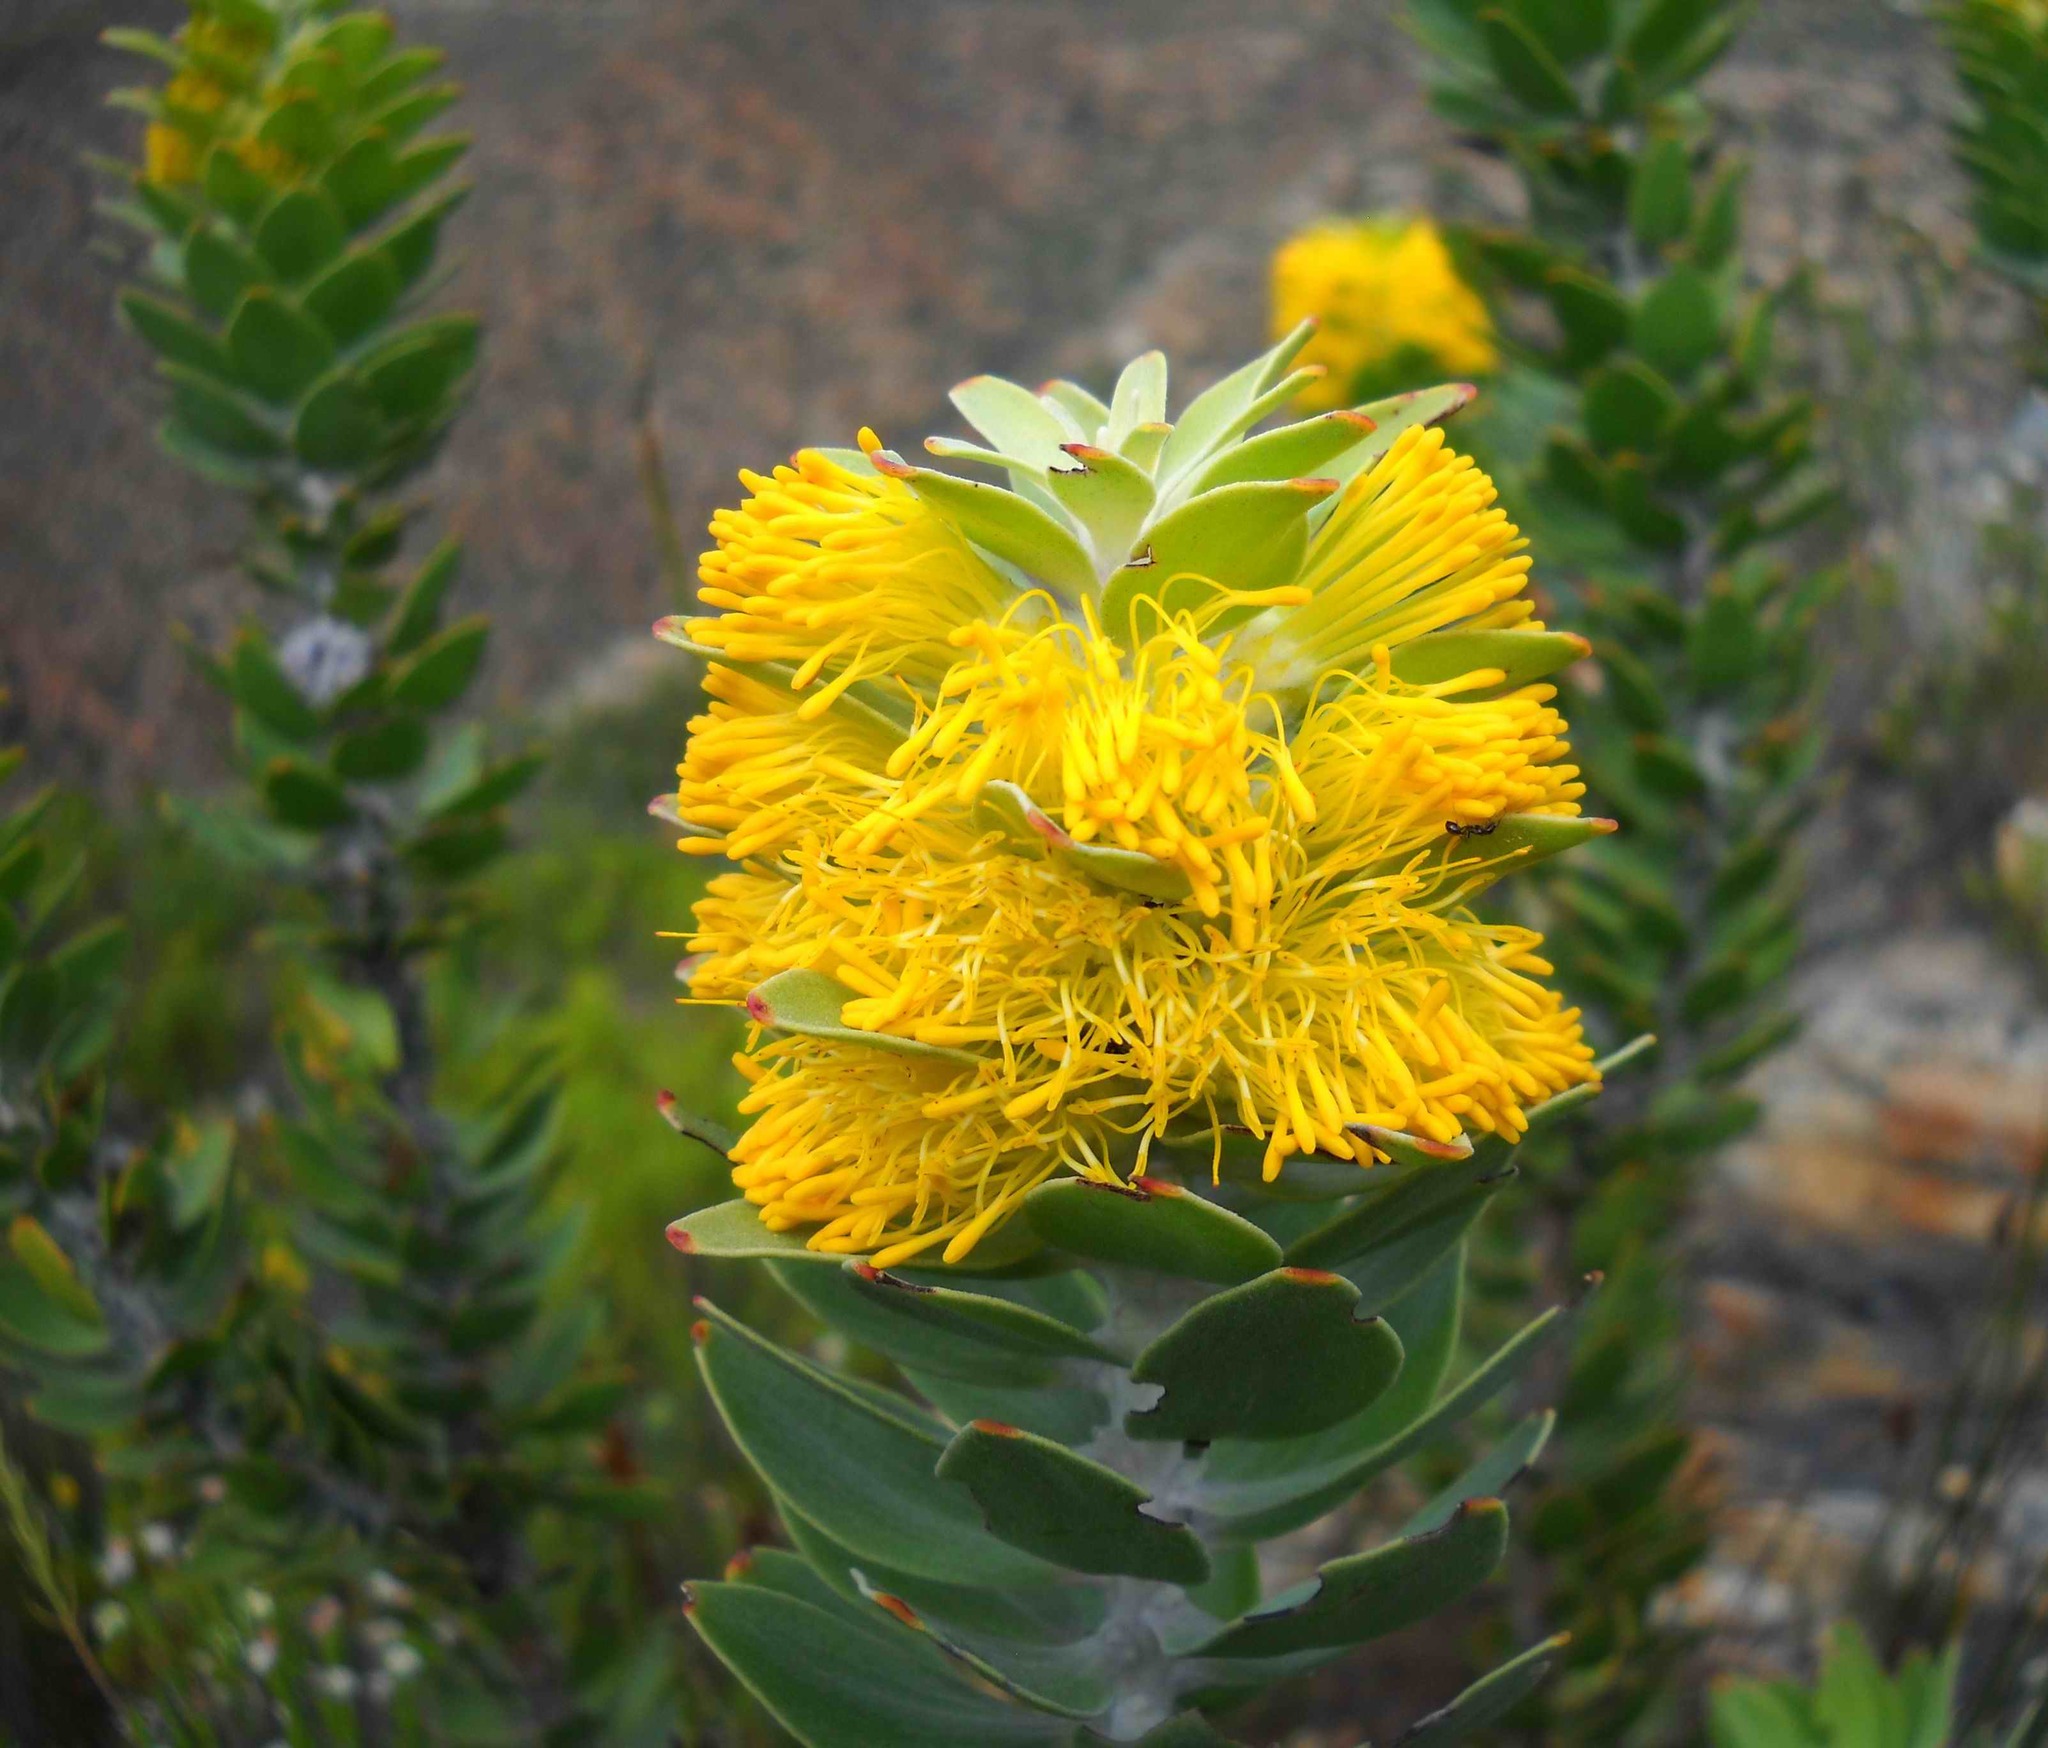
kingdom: Plantae
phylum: Tracheophyta
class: Magnoliopsida
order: Proteales
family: Proteaceae
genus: Mimetes
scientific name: Mimetes chrysanthus
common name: Golden pagoda
